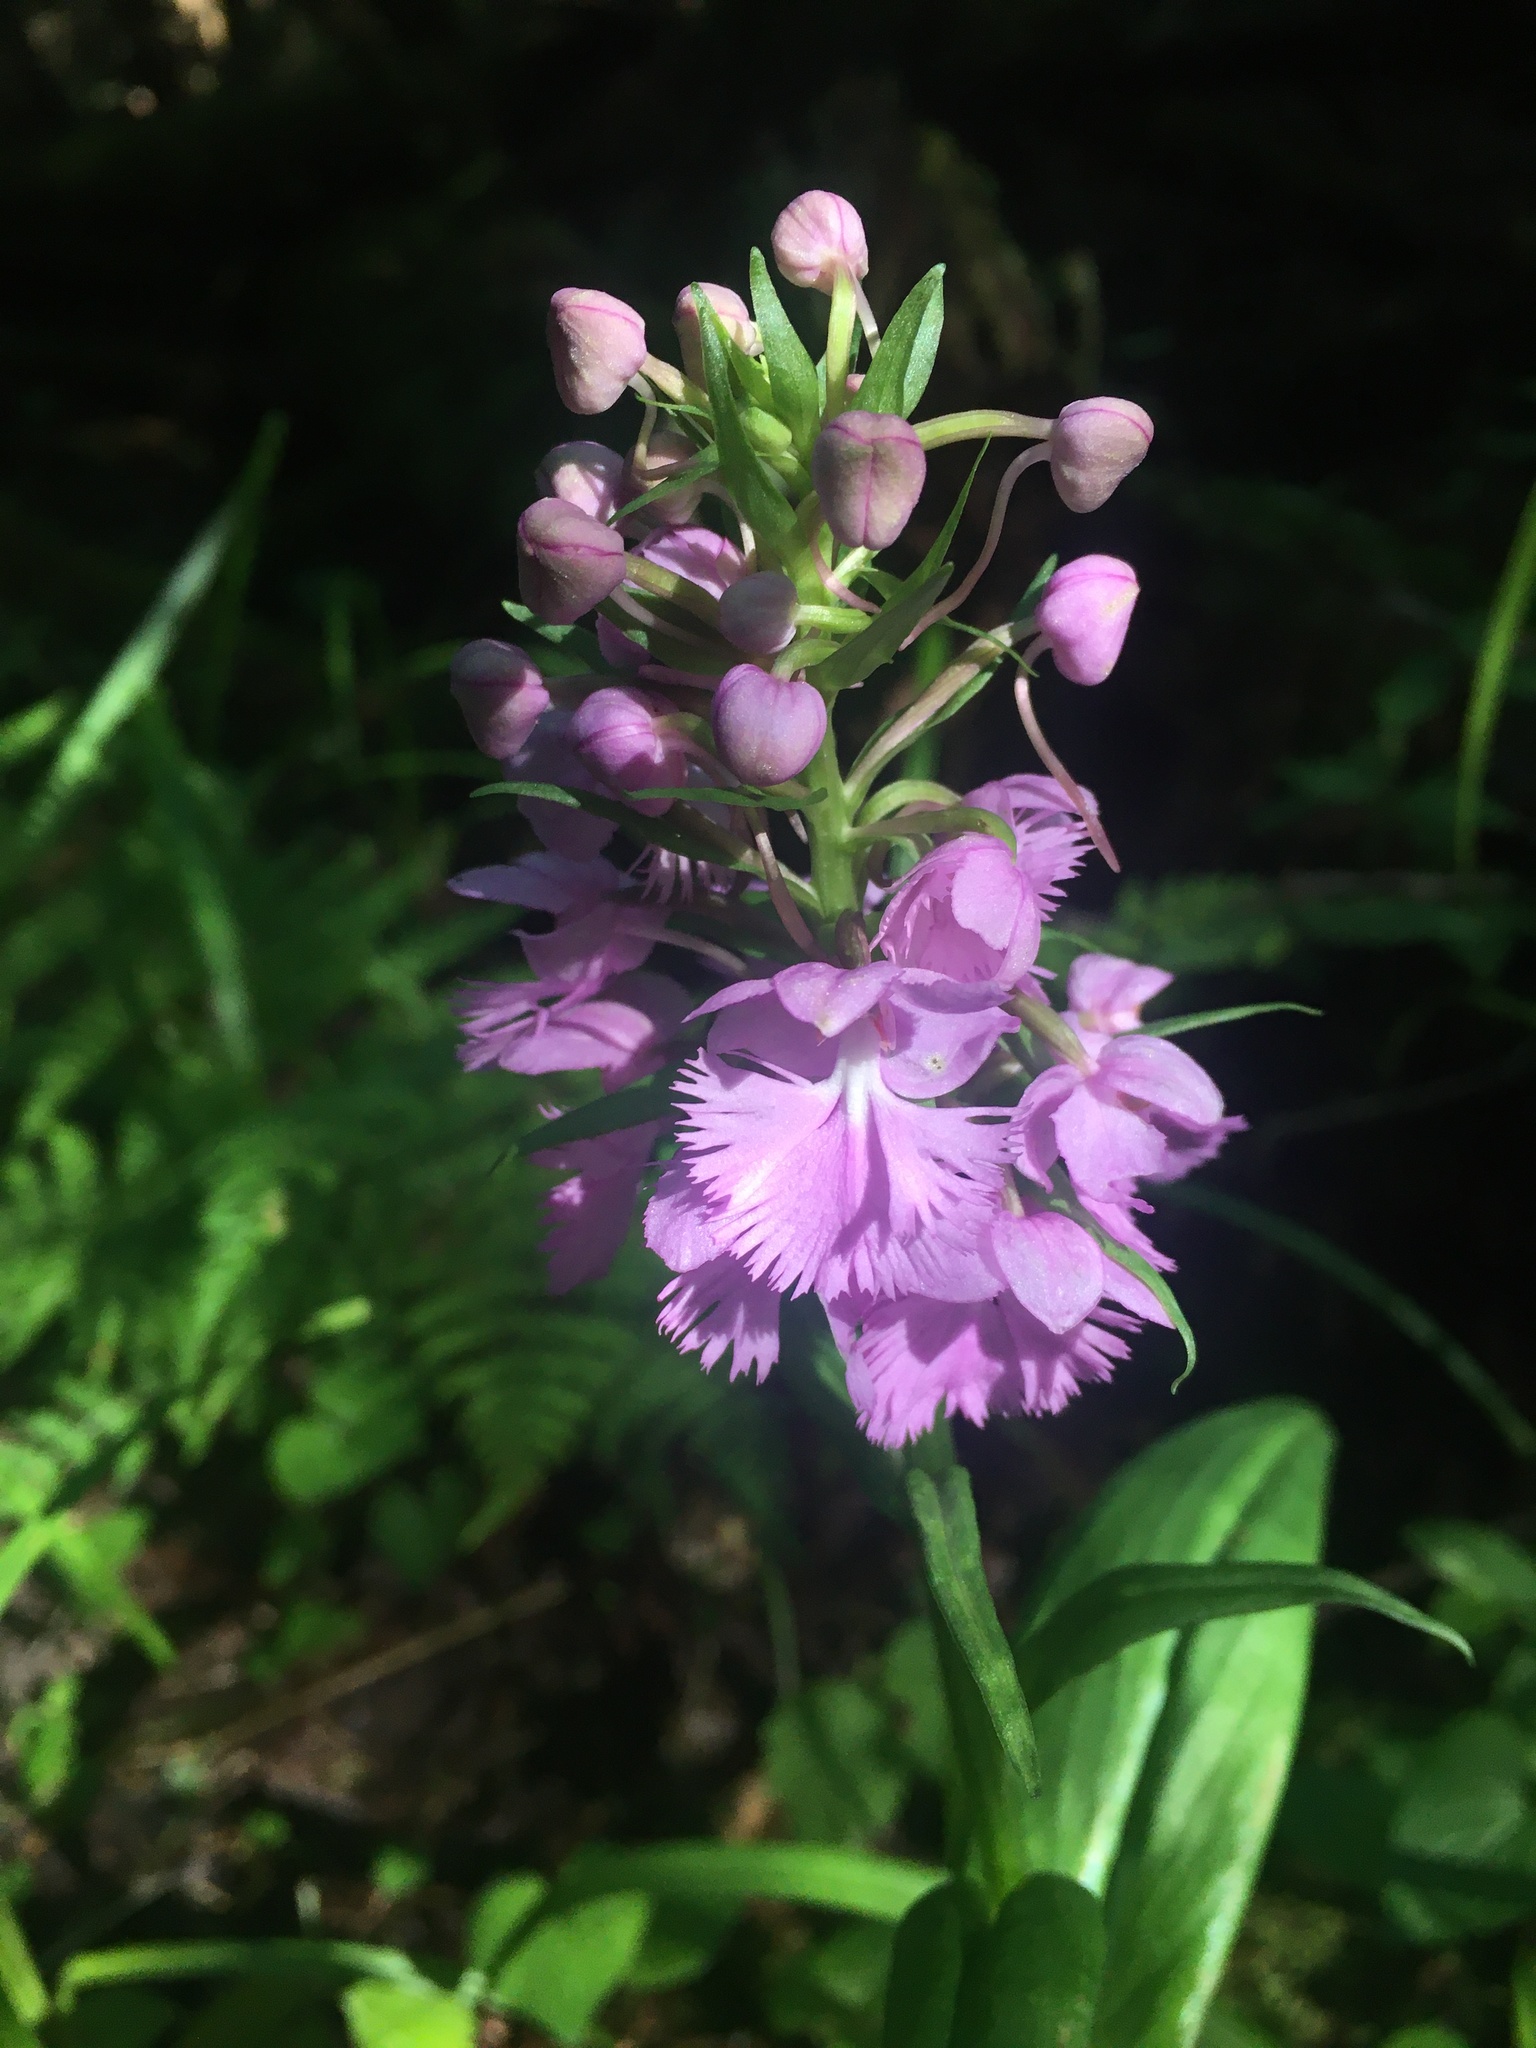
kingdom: Plantae
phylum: Tracheophyta
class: Liliopsida
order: Asparagales
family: Orchidaceae
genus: Platanthera
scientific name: Platanthera grandiflora
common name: Greater purple fringed orchid
